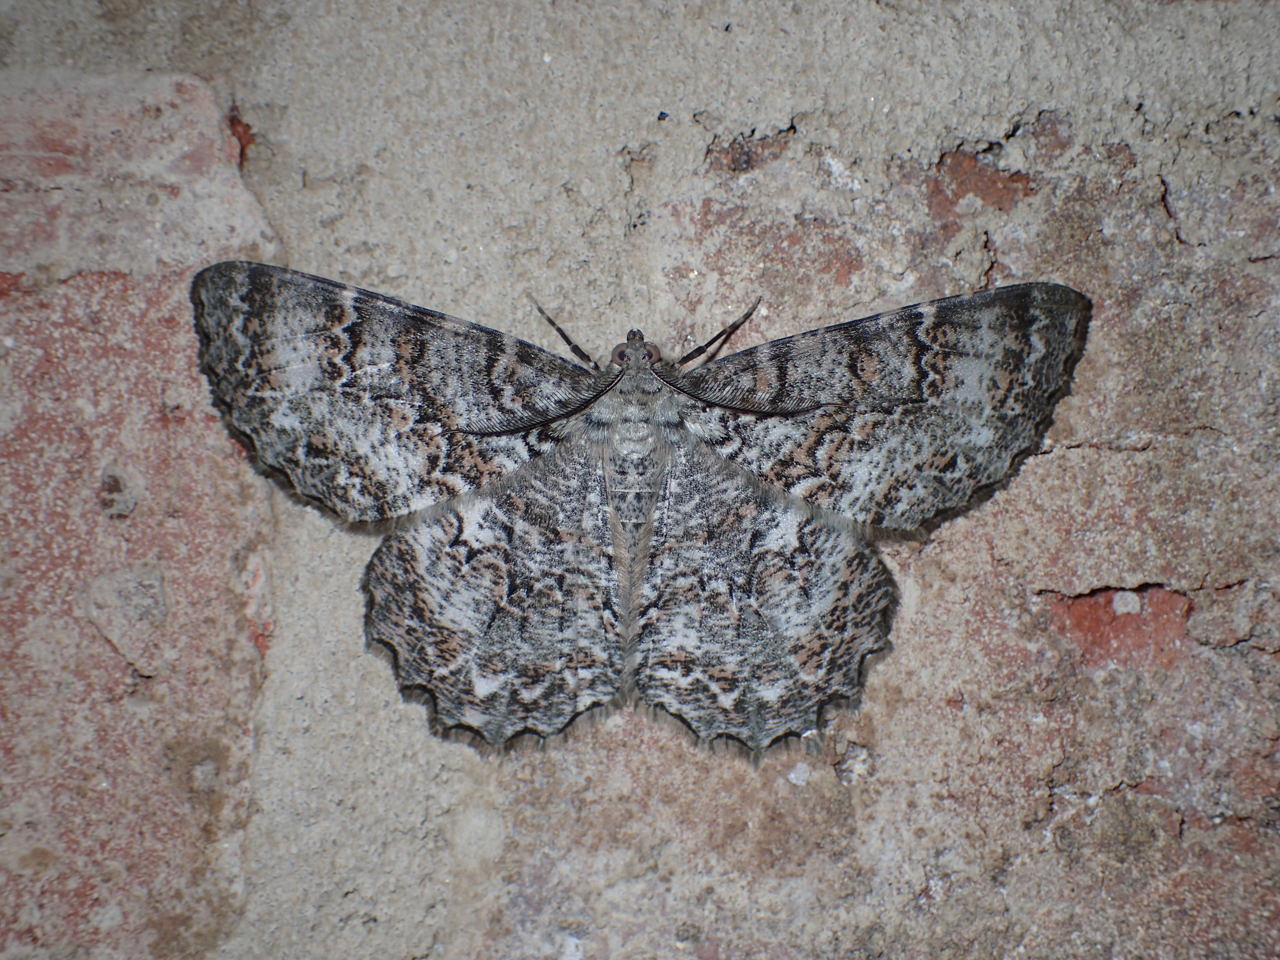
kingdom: Animalia
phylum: Arthropoda
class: Insecta
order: Lepidoptera
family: Geometridae
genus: Epimecis
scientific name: Epimecis hortaria
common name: Tulip-tree beauty
